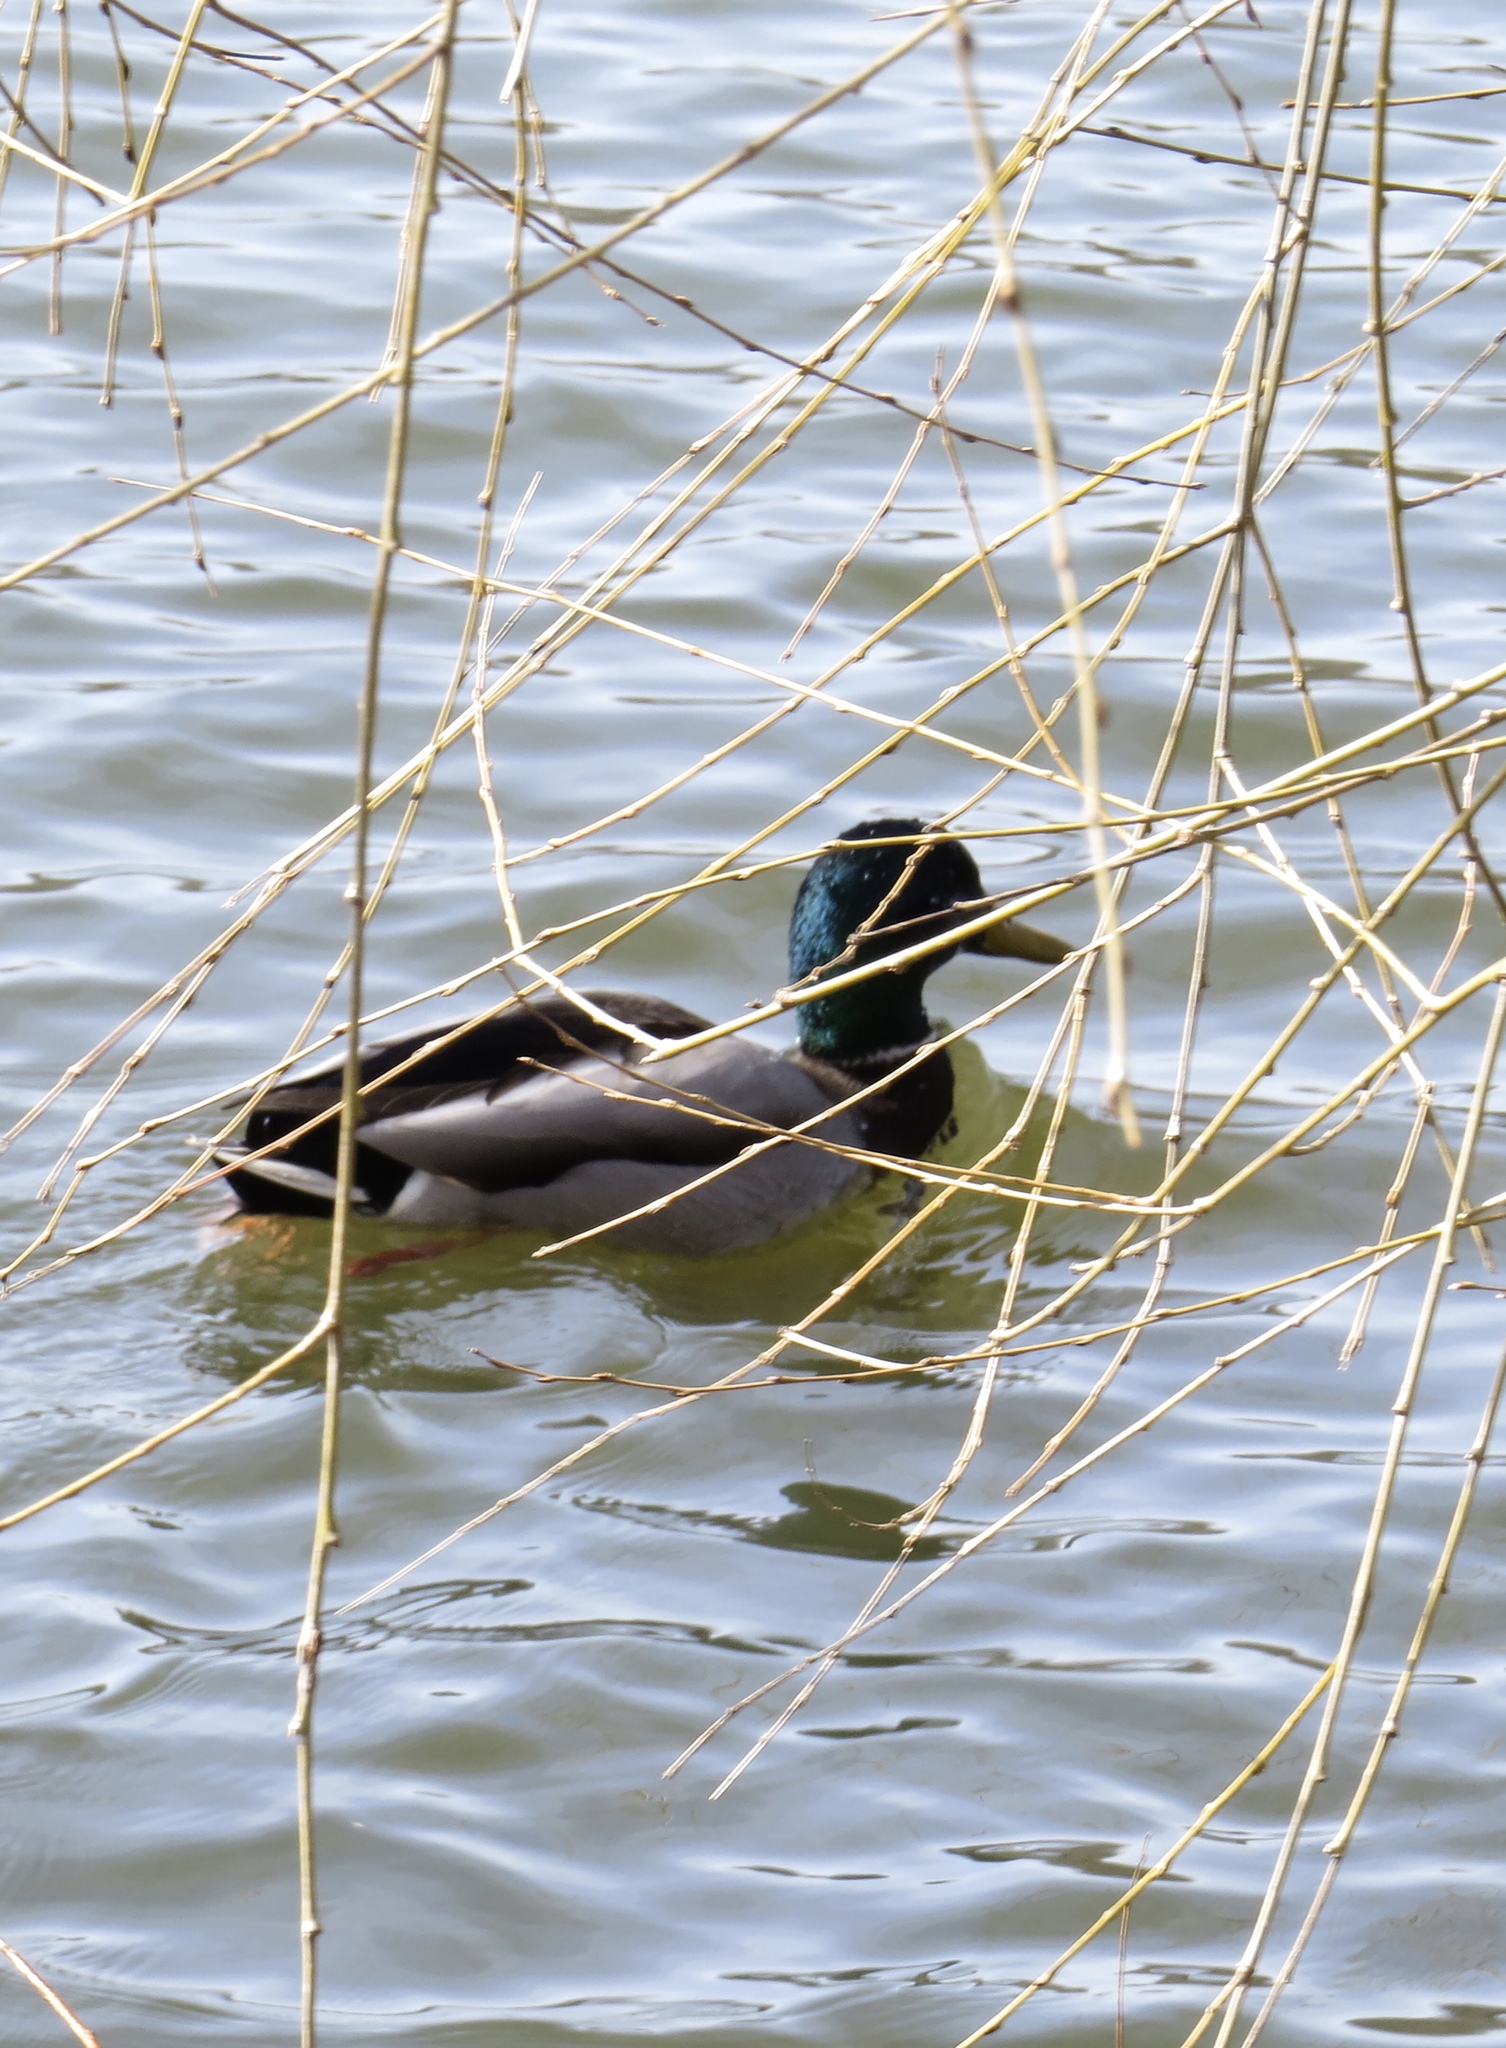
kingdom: Animalia
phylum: Chordata
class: Aves
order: Anseriformes
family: Anatidae
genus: Anas
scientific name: Anas platyrhynchos
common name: Mallard
